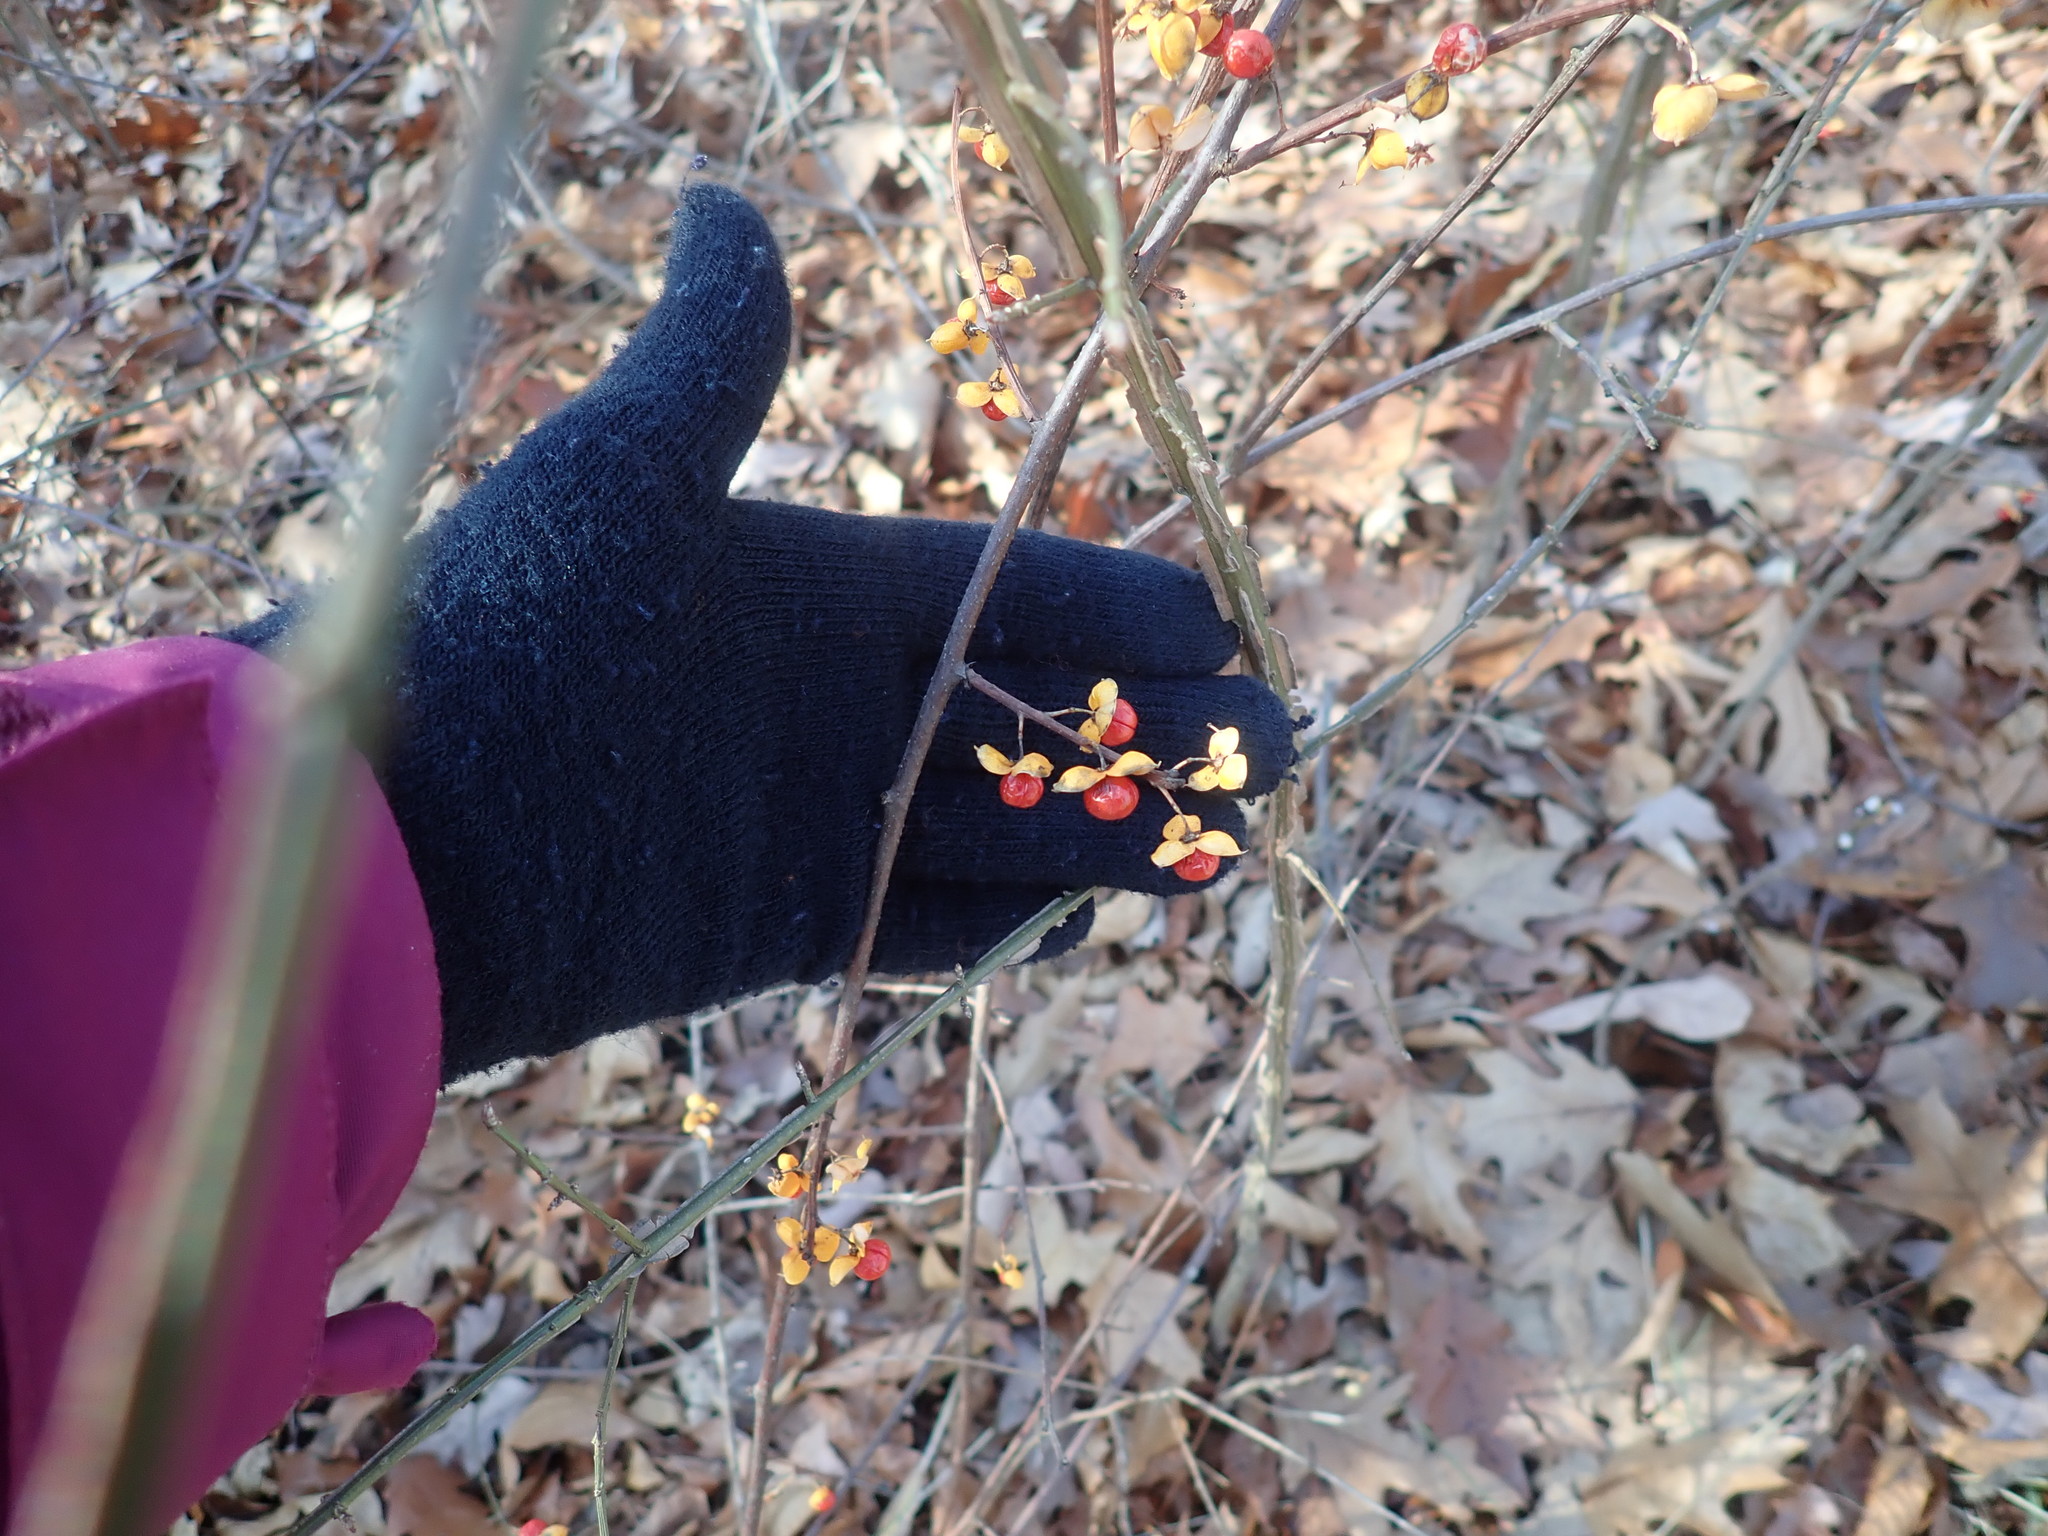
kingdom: Plantae
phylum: Tracheophyta
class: Magnoliopsida
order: Celastrales
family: Celastraceae
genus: Celastrus
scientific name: Celastrus orbiculatus
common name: Oriental bittersweet
